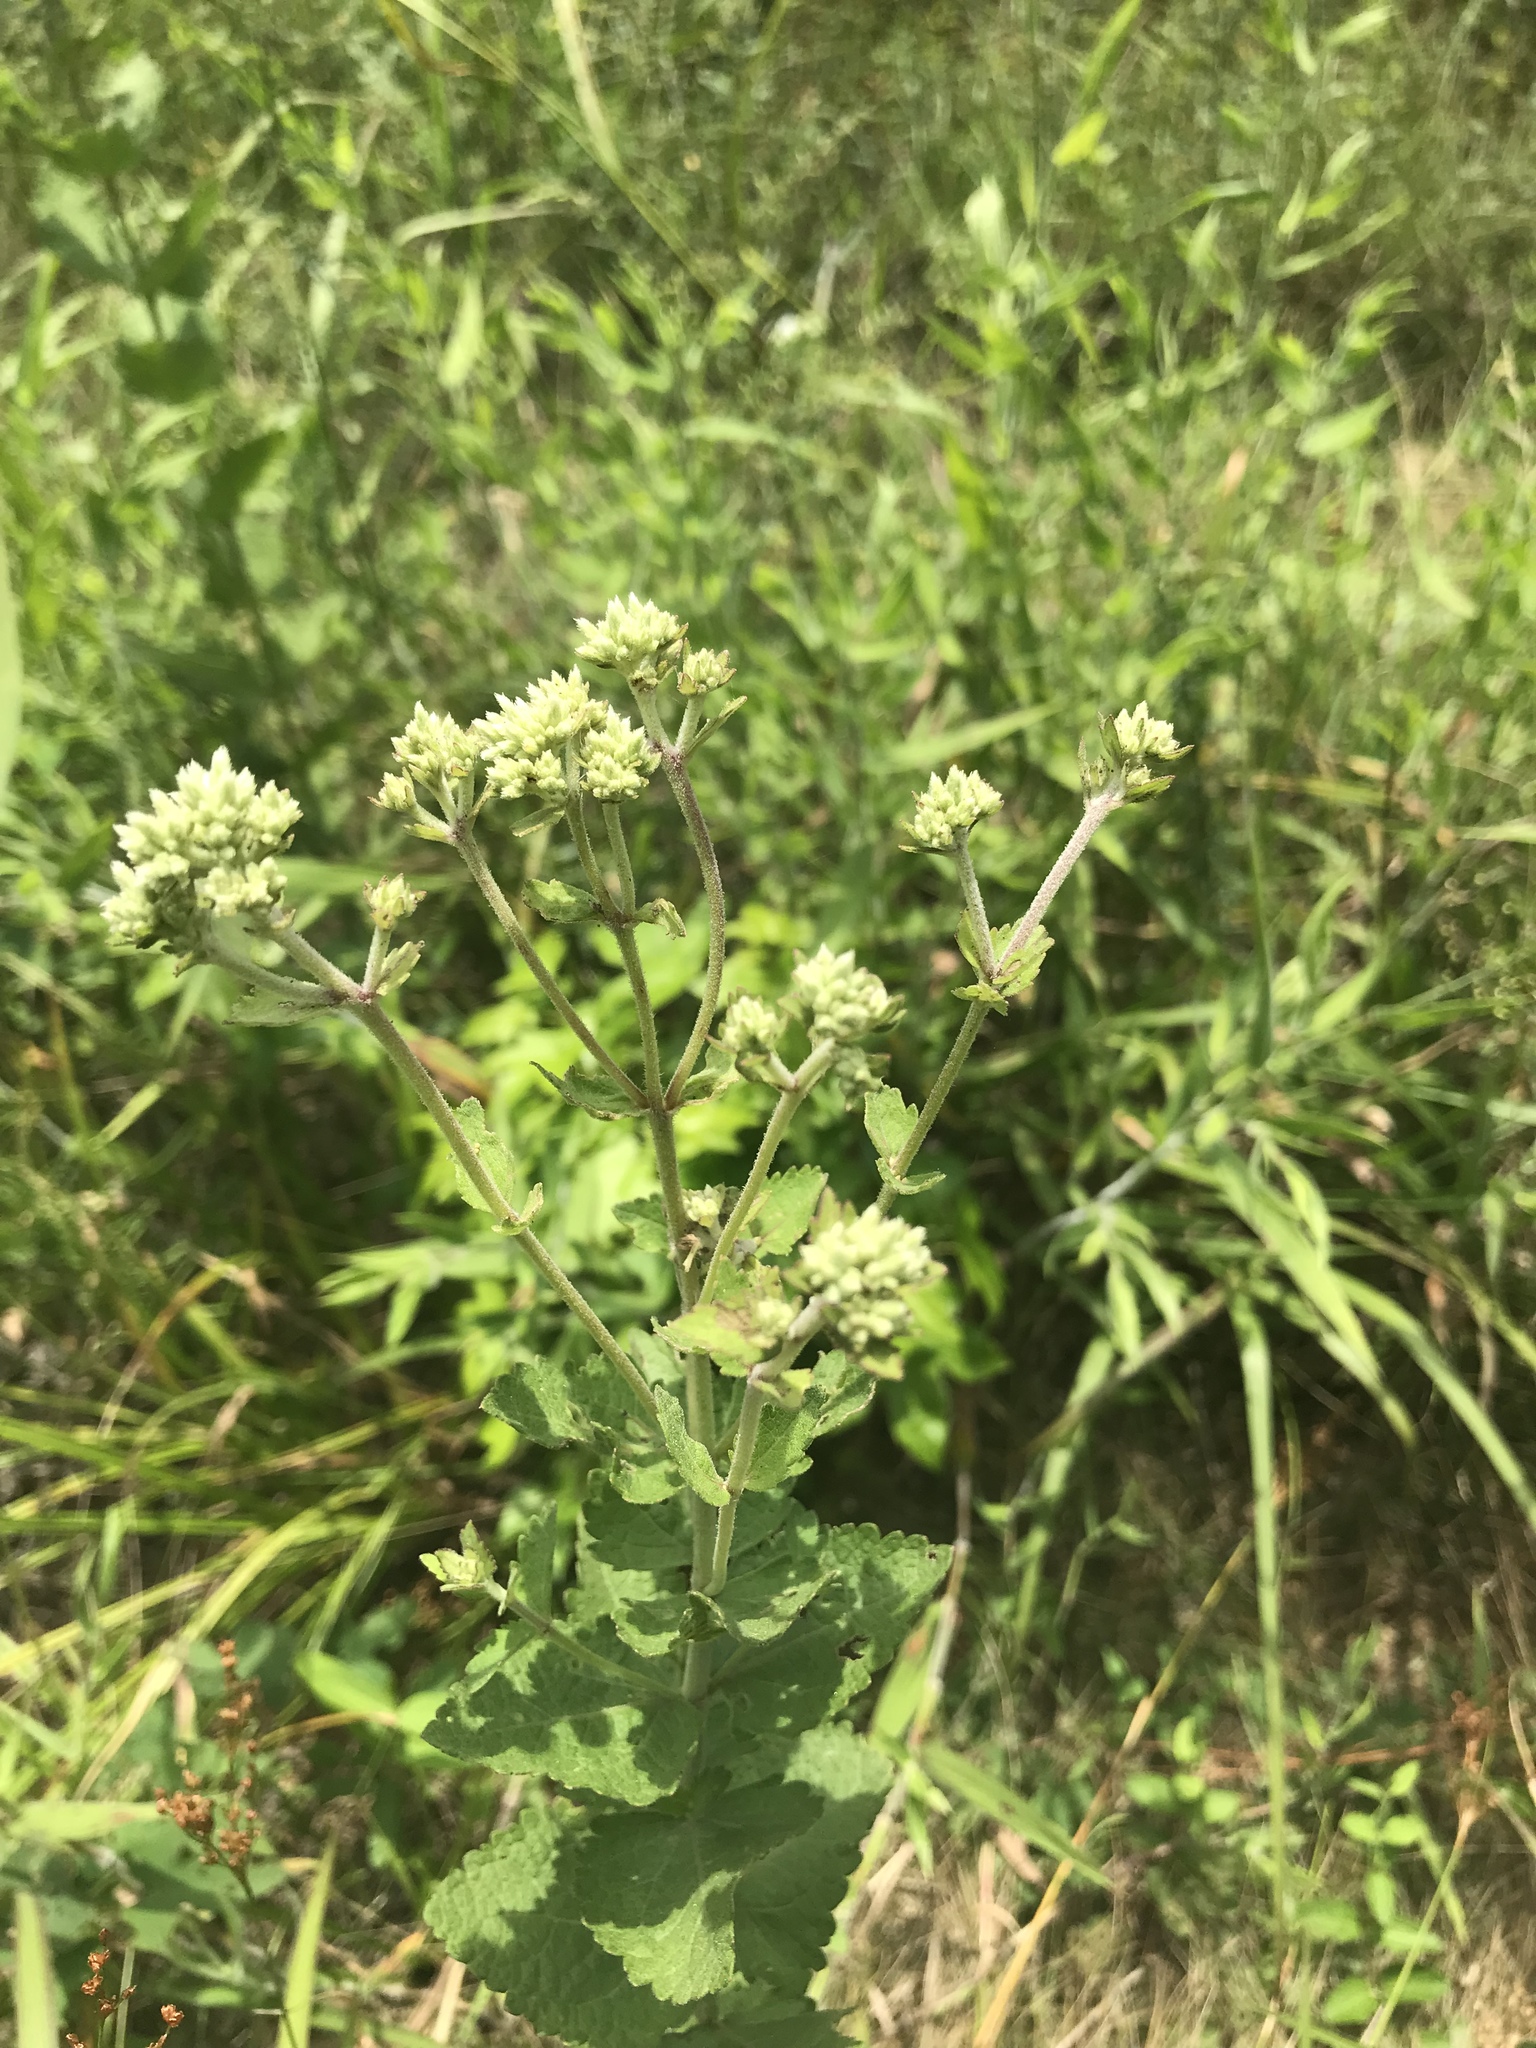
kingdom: Plantae
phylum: Tracheophyta
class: Magnoliopsida
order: Asterales
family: Asteraceae
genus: Eupatorium
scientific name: Eupatorium rotundifolium
